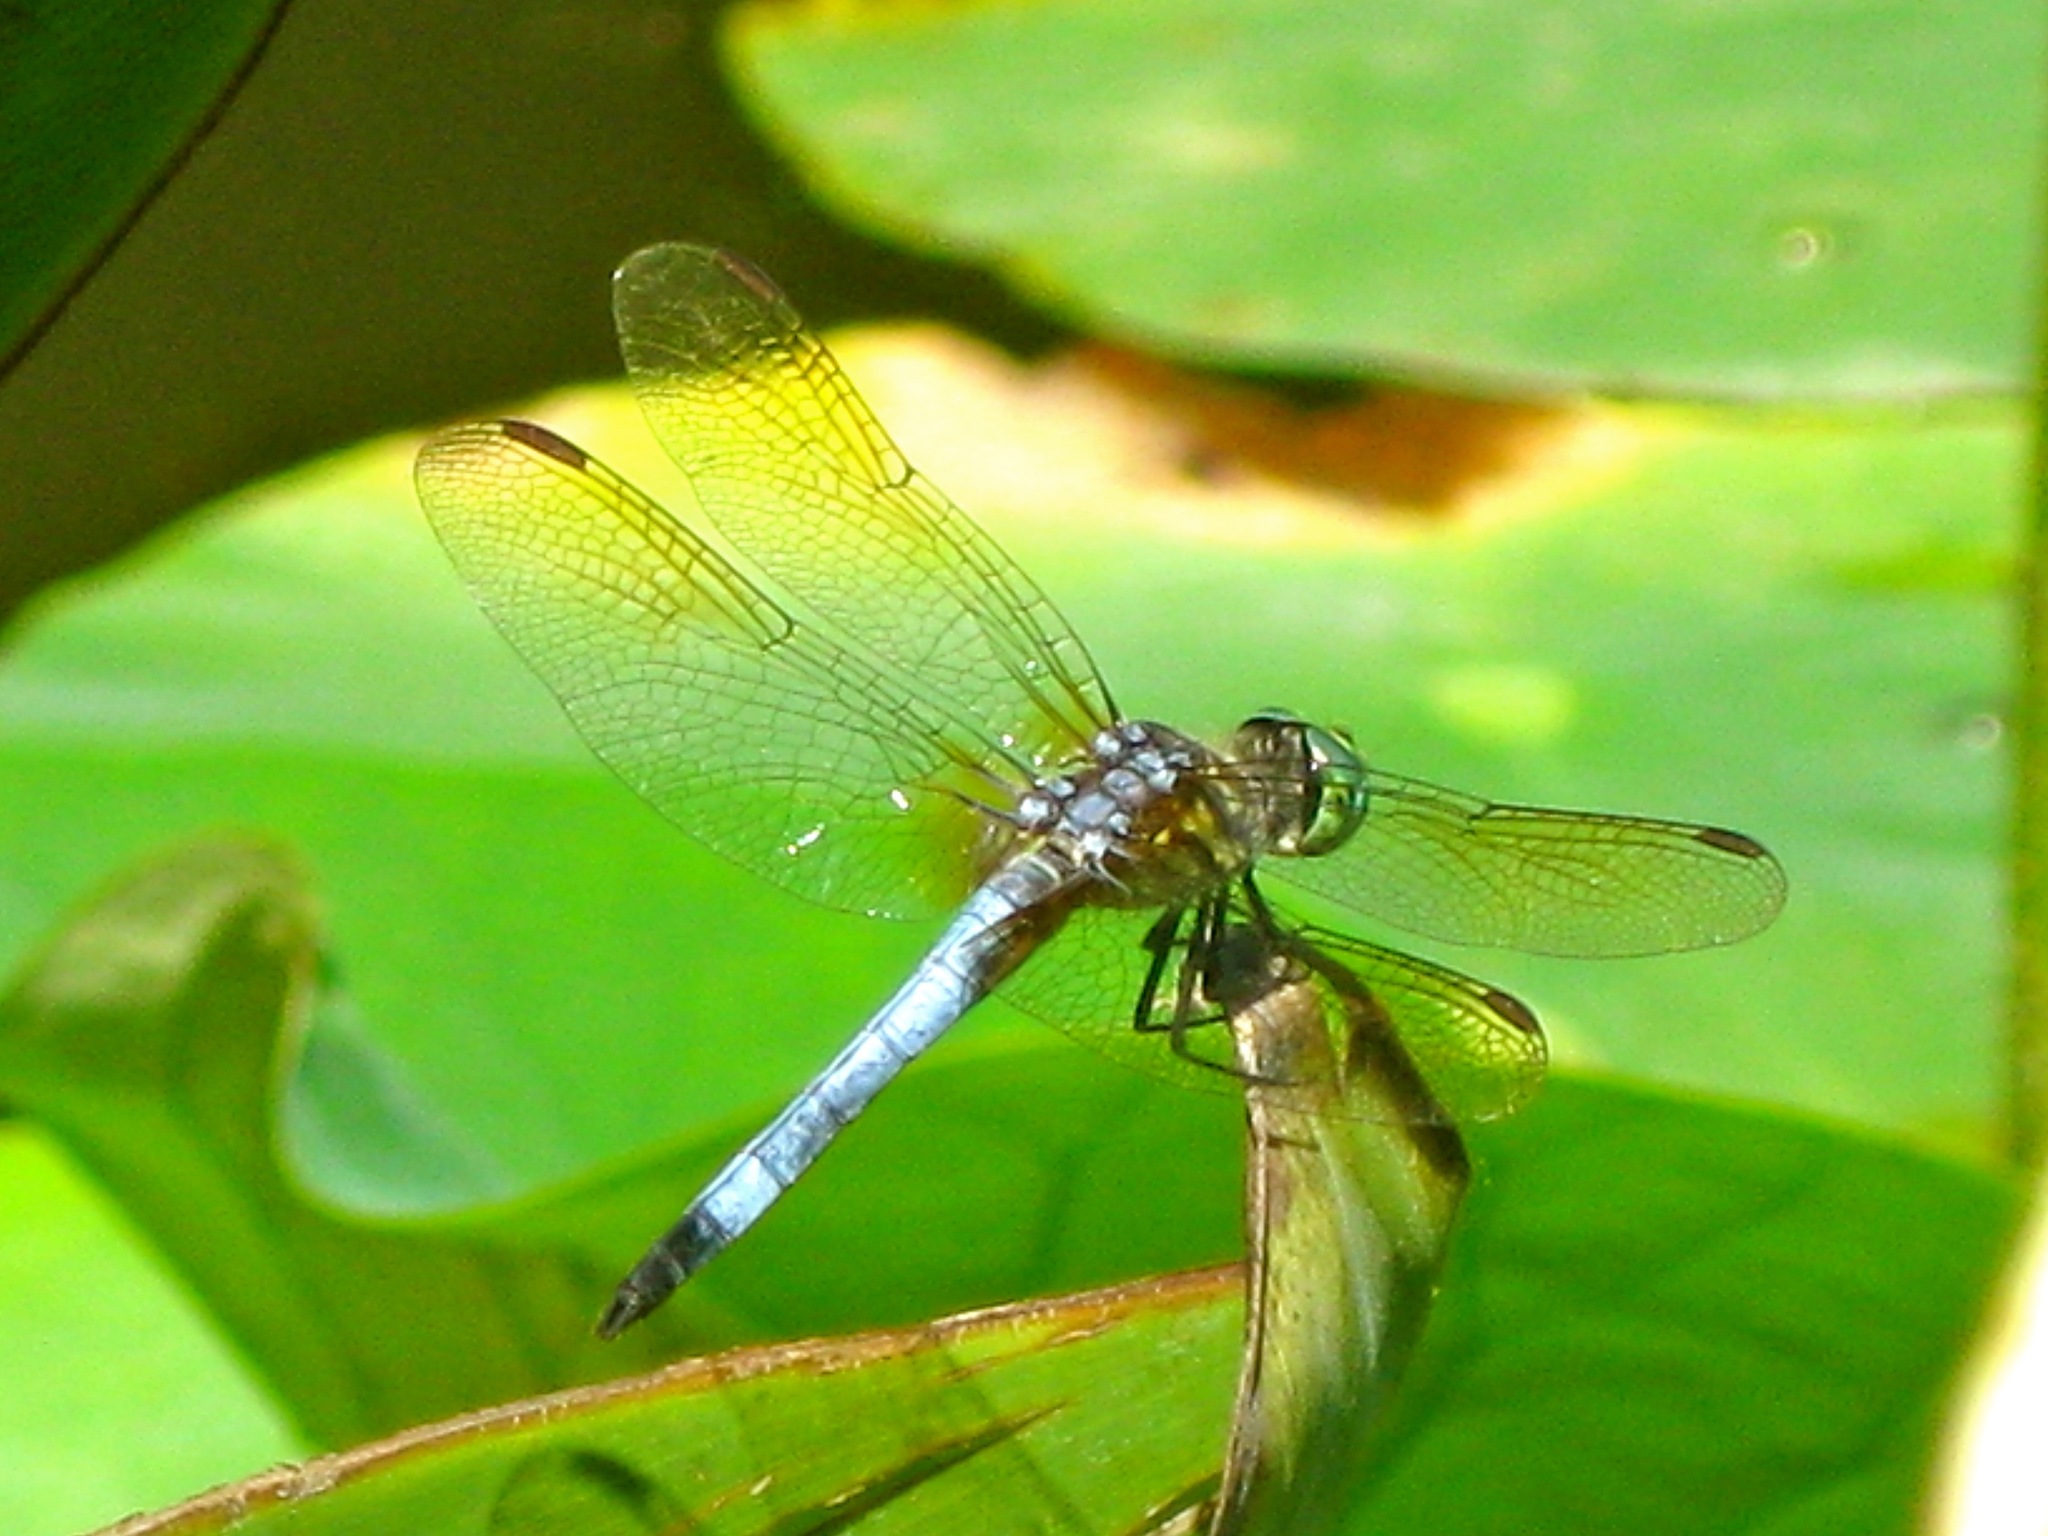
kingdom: Animalia
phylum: Arthropoda
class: Insecta
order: Odonata
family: Libellulidae
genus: Pachydiplax
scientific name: Pachydiplax longipennis
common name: Blue dasher
